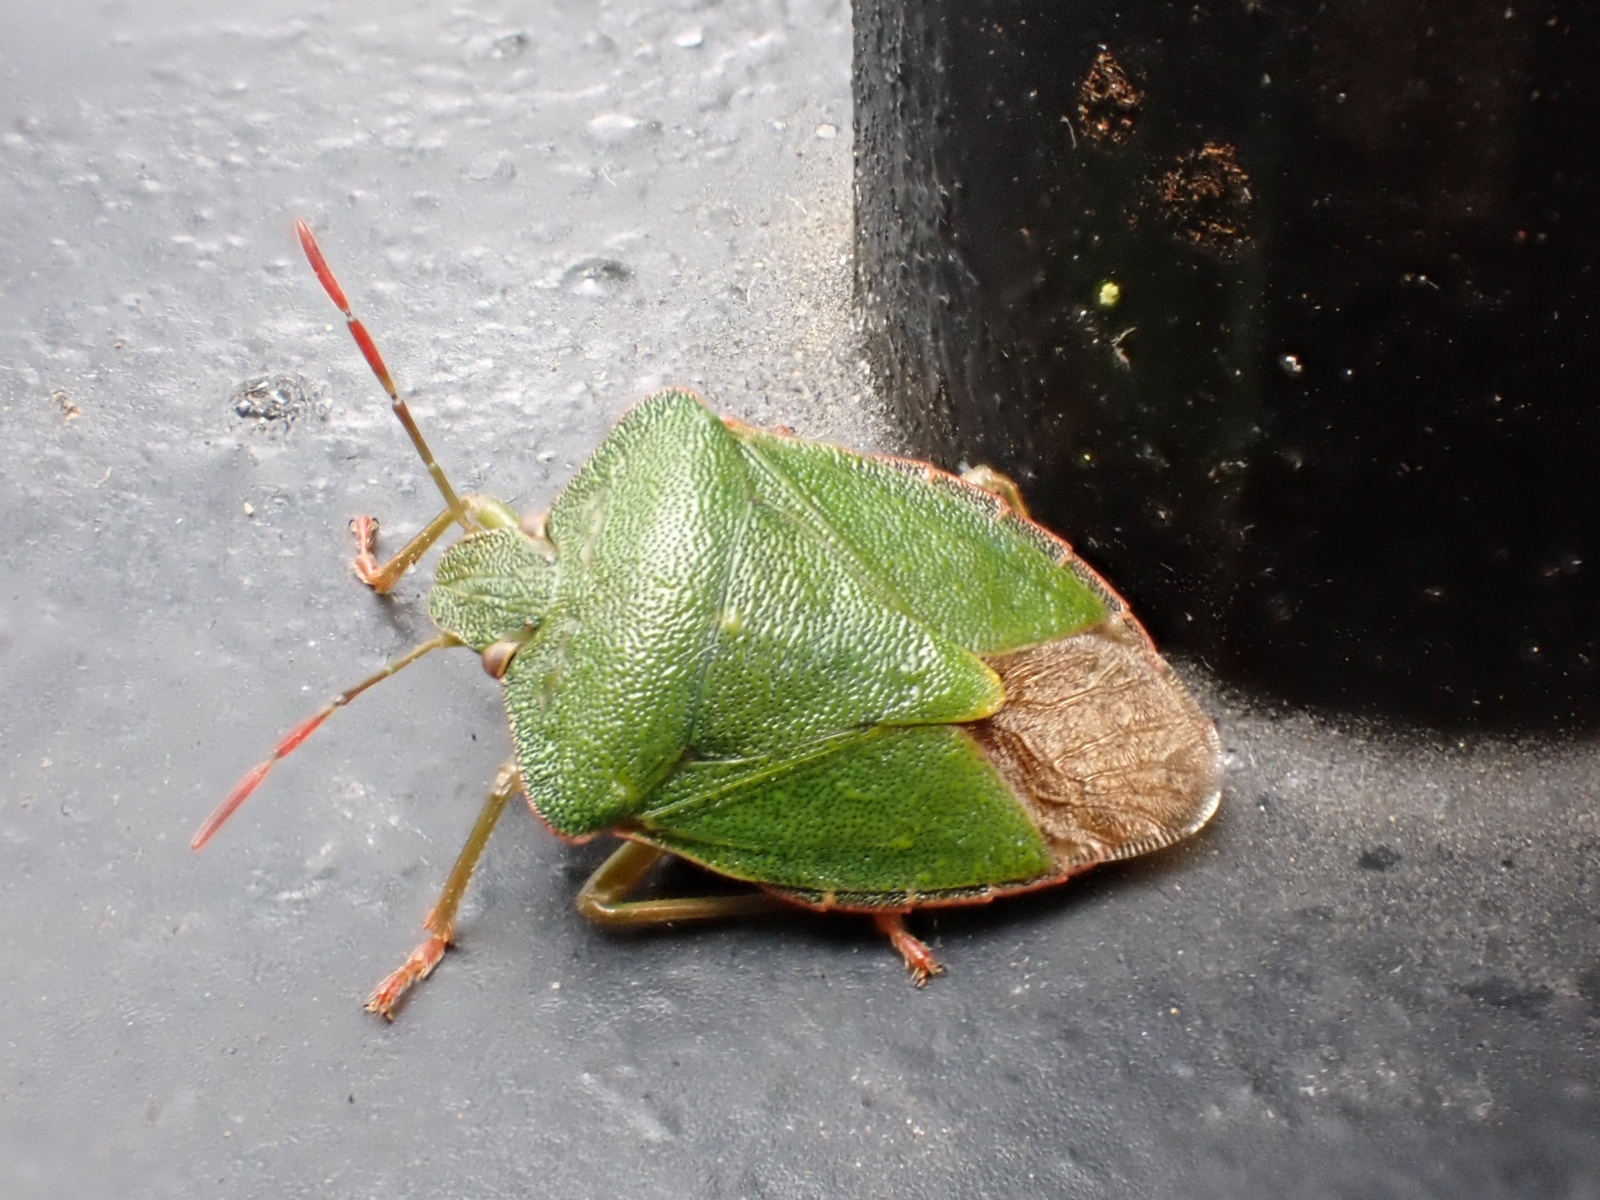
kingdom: Animalia
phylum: Arthropoda
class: Insecta
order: Hemiptera
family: Pentatomidae
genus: Palomena
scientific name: Palomena prasina
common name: Green shieldbug
